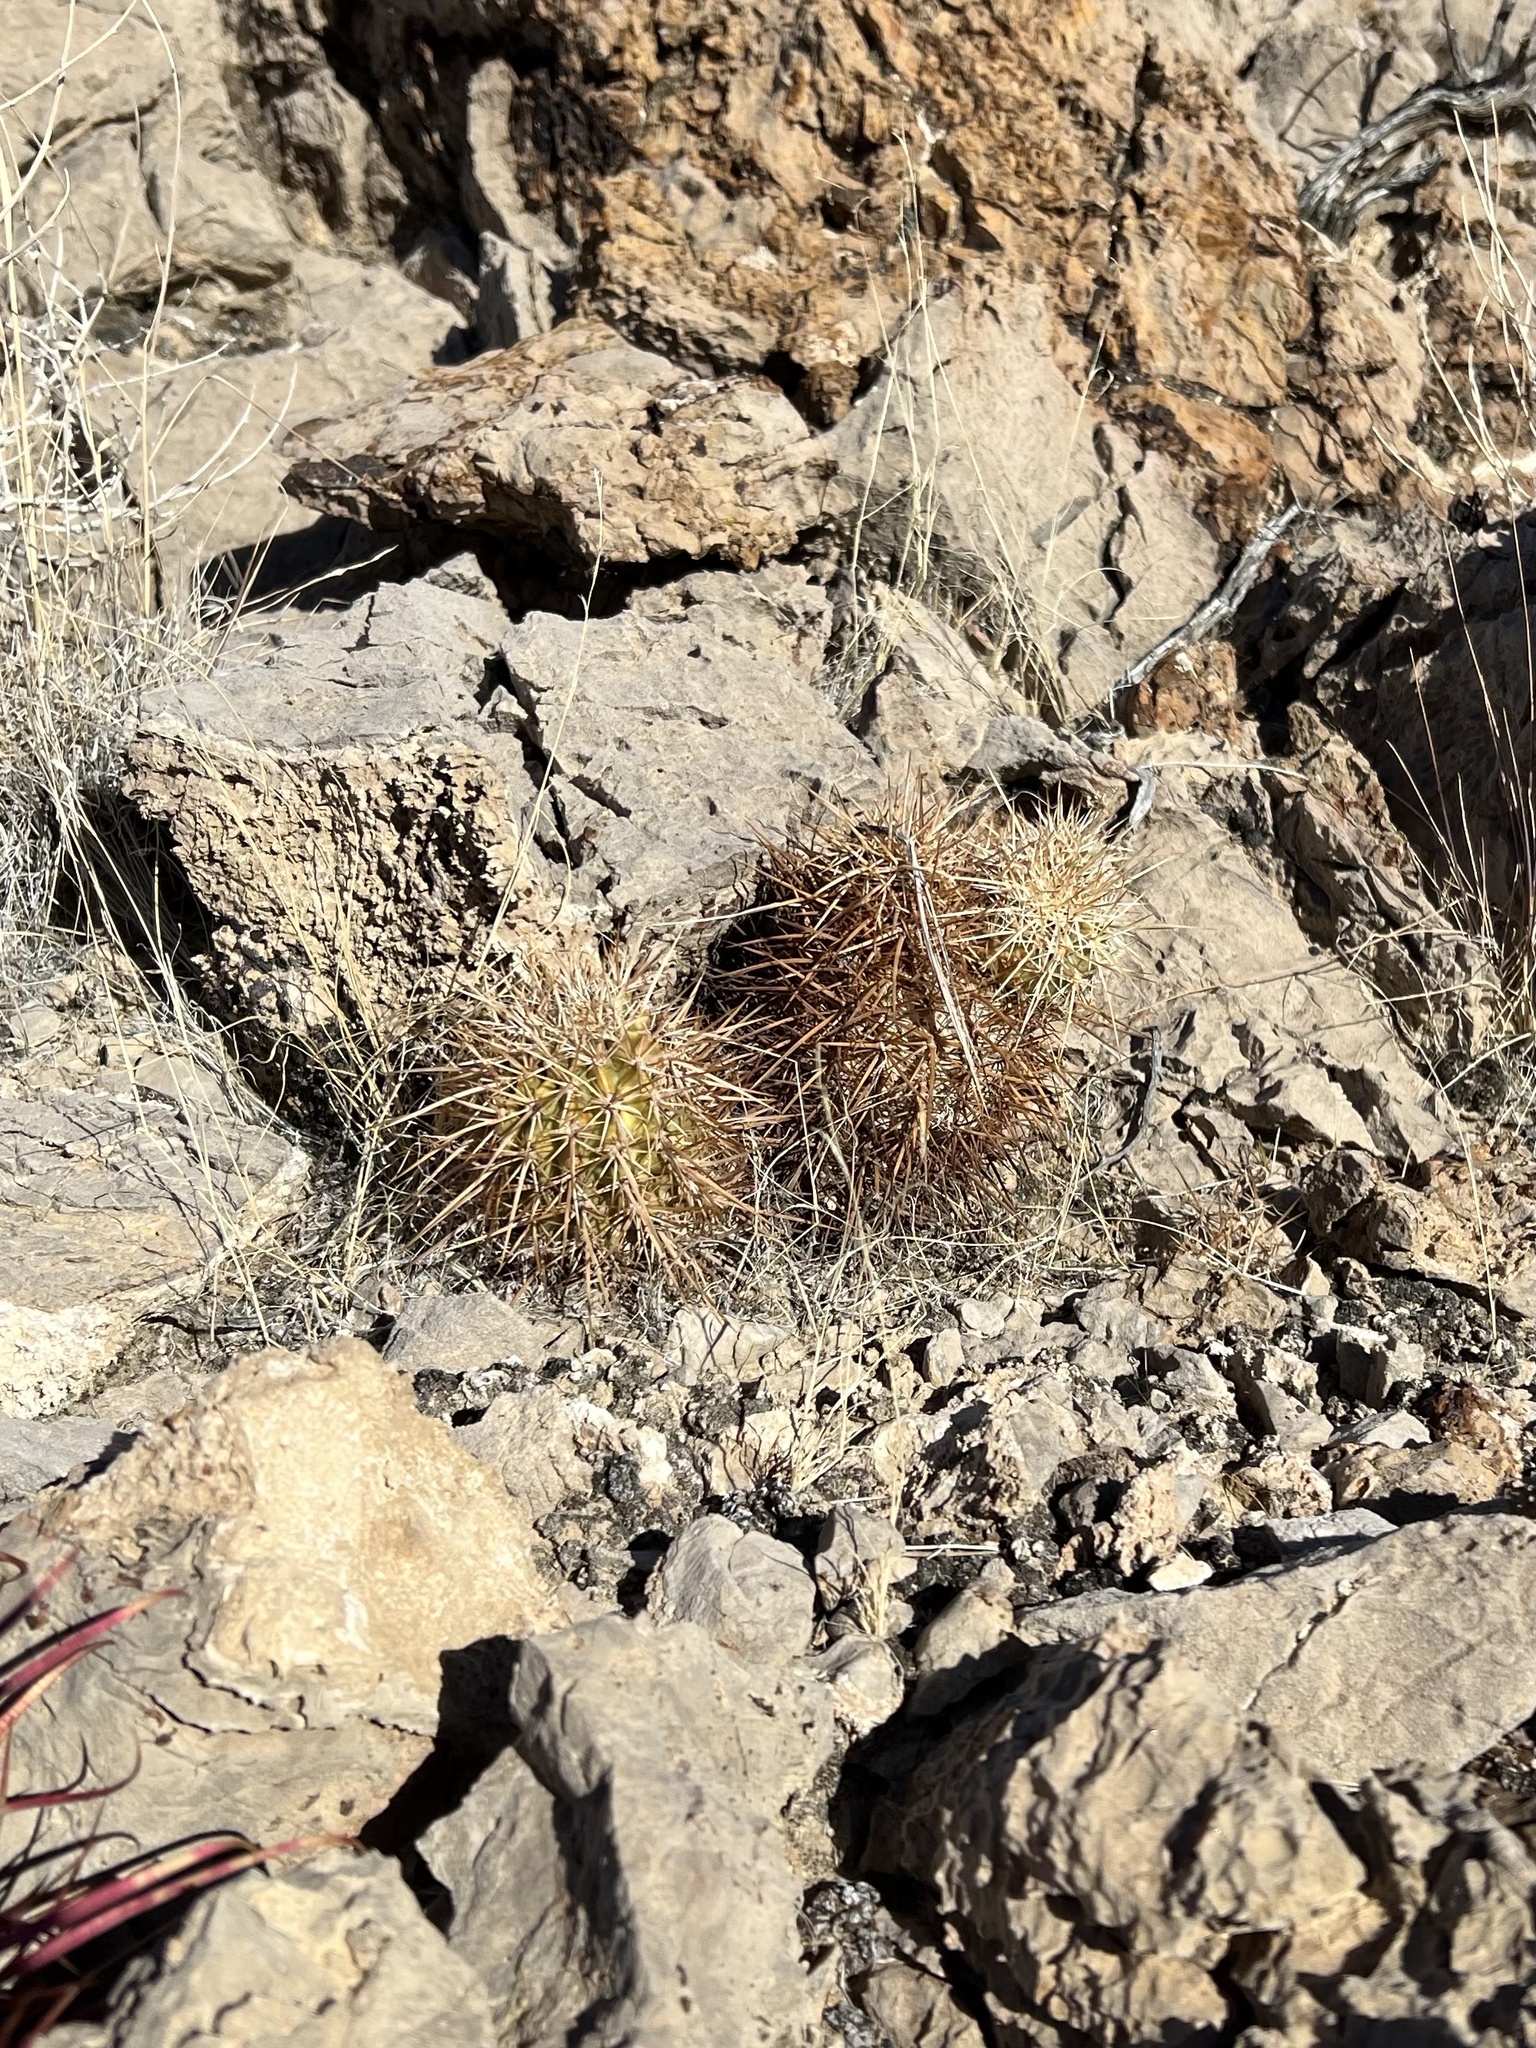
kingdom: Plantae
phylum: Tracheophyta
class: Magnoliopsida
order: Caryophyllales
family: Cactaceae
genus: Echinocereus
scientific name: Echinocereus engelmannii
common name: Engelmann's hedgehog cactus
